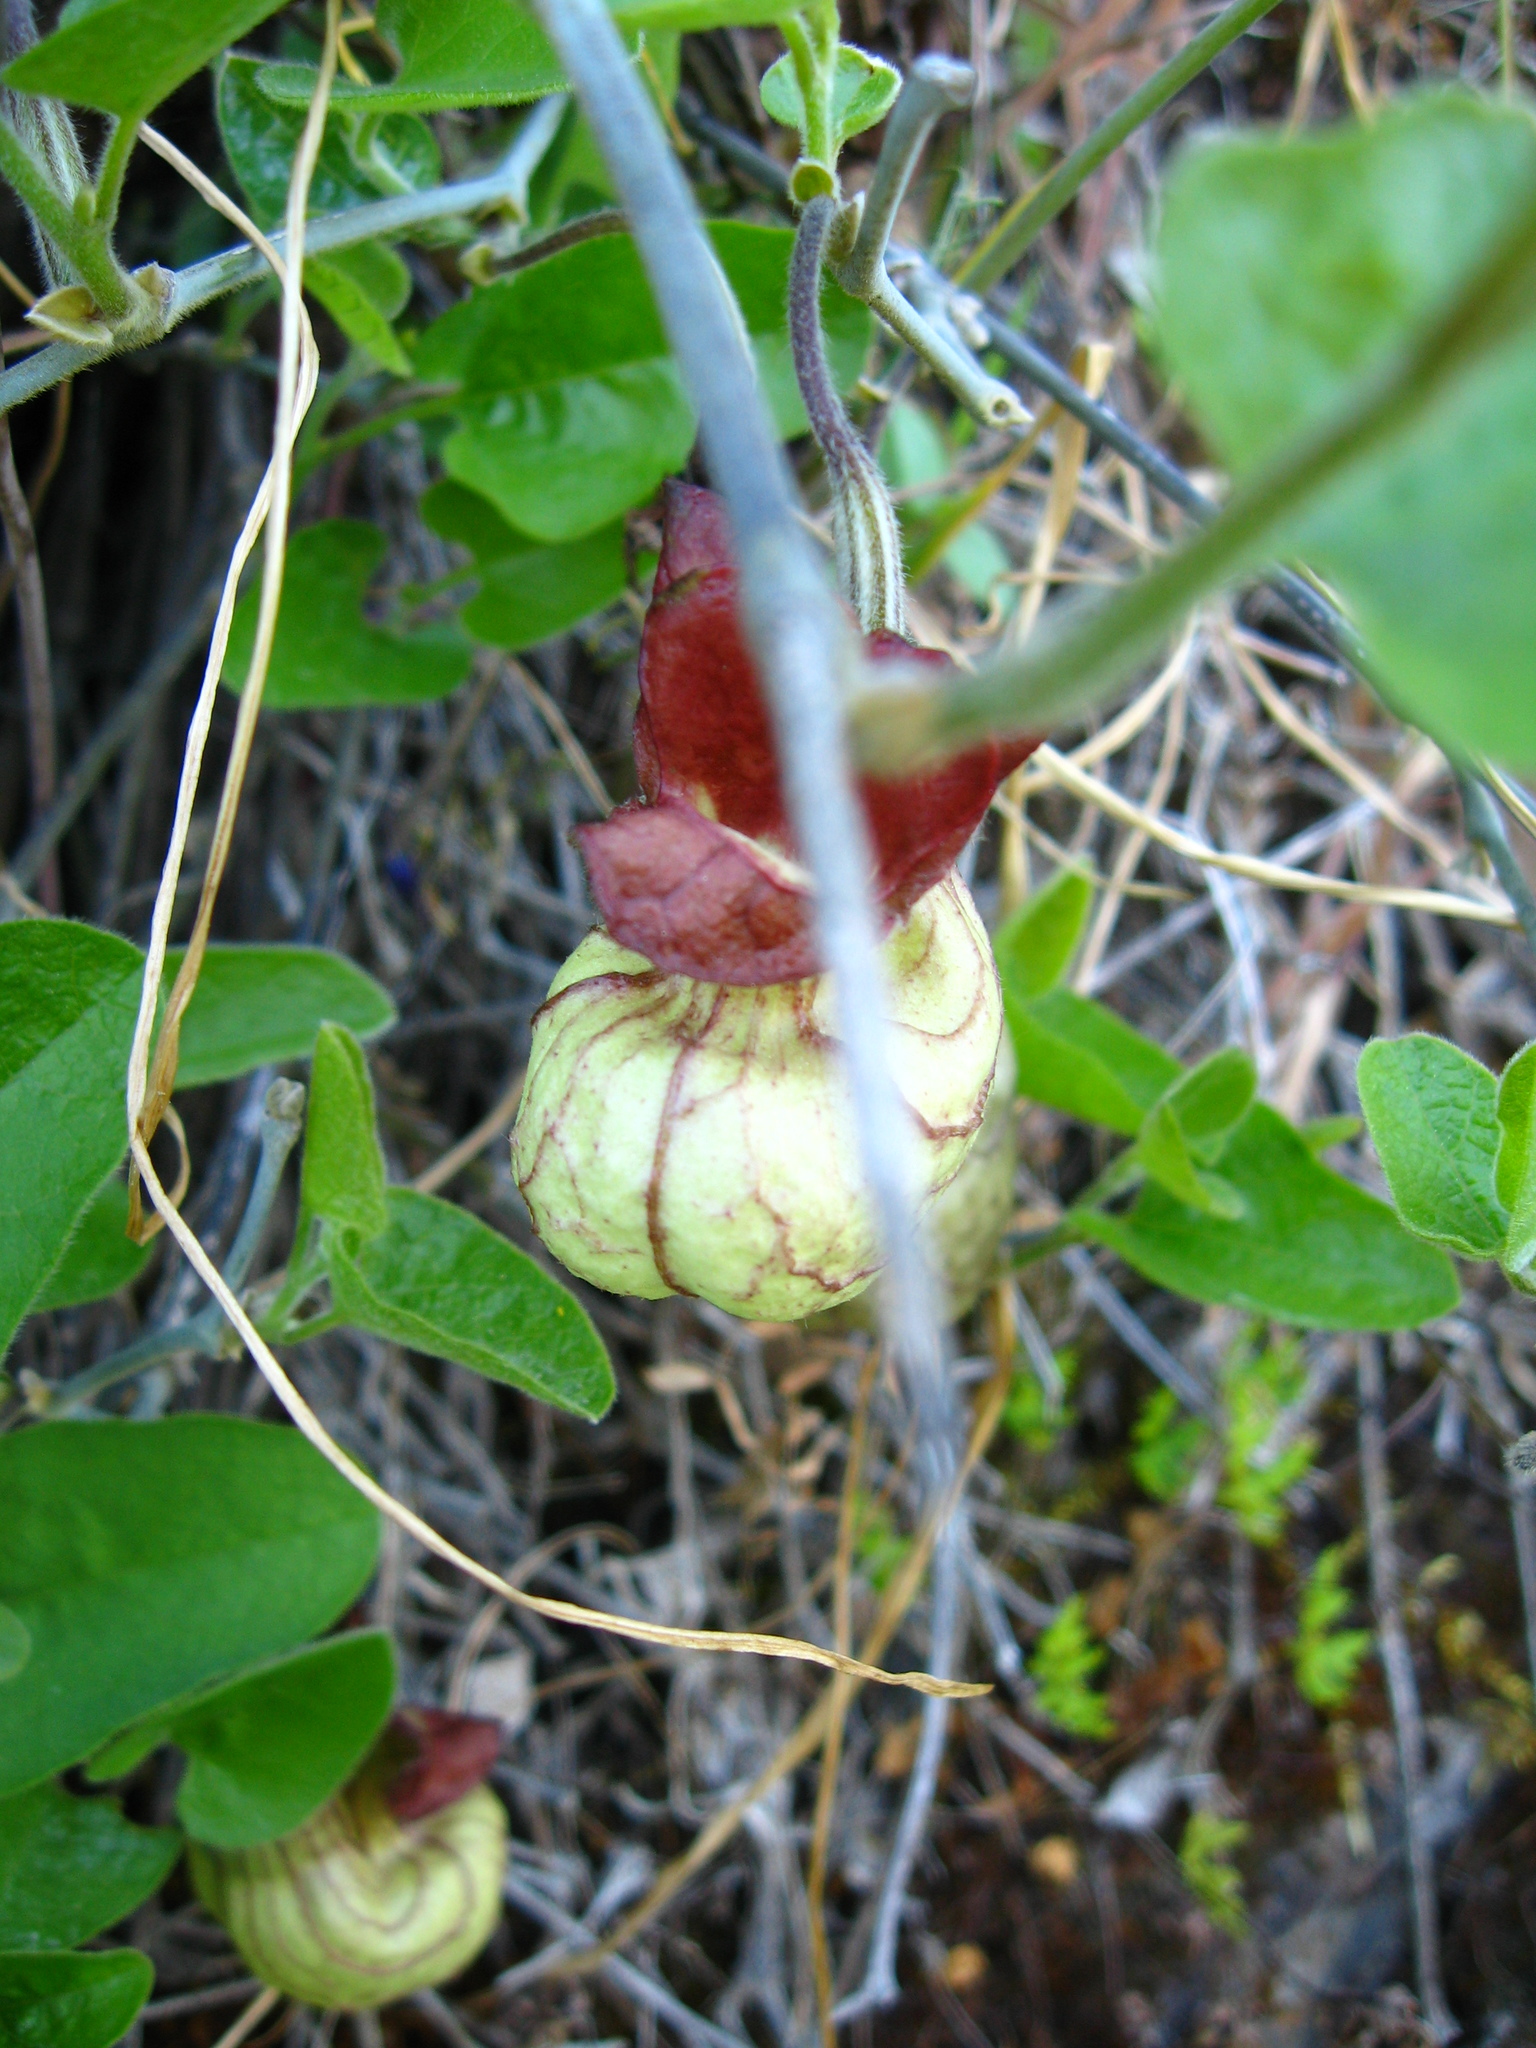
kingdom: Plantae
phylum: Tracheophyta
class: Magnoliopsida
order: Piperales
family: Aristolochiaceae
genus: Isotrema
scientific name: Isotrema californicum
